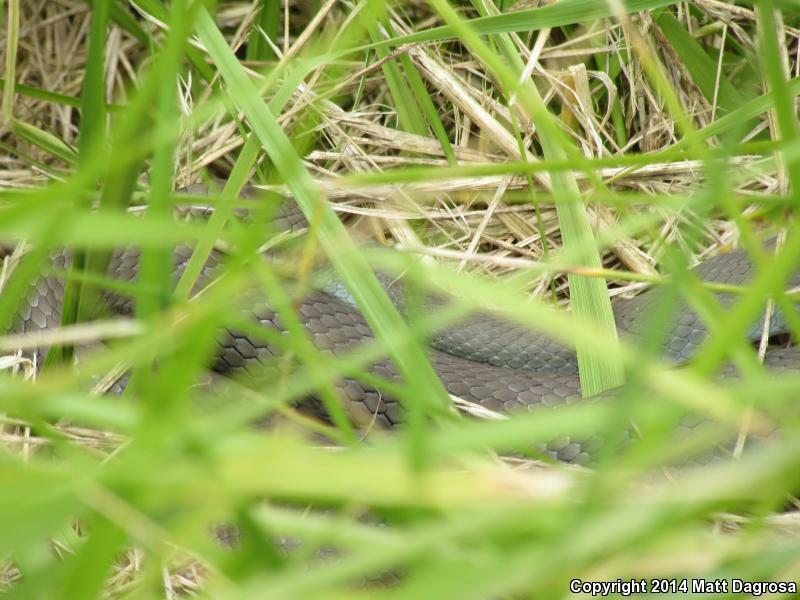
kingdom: Animalia
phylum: Chordata
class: Squamata
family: Colubridae
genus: Coluber
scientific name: Coluber constrictor
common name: Eastern racer
